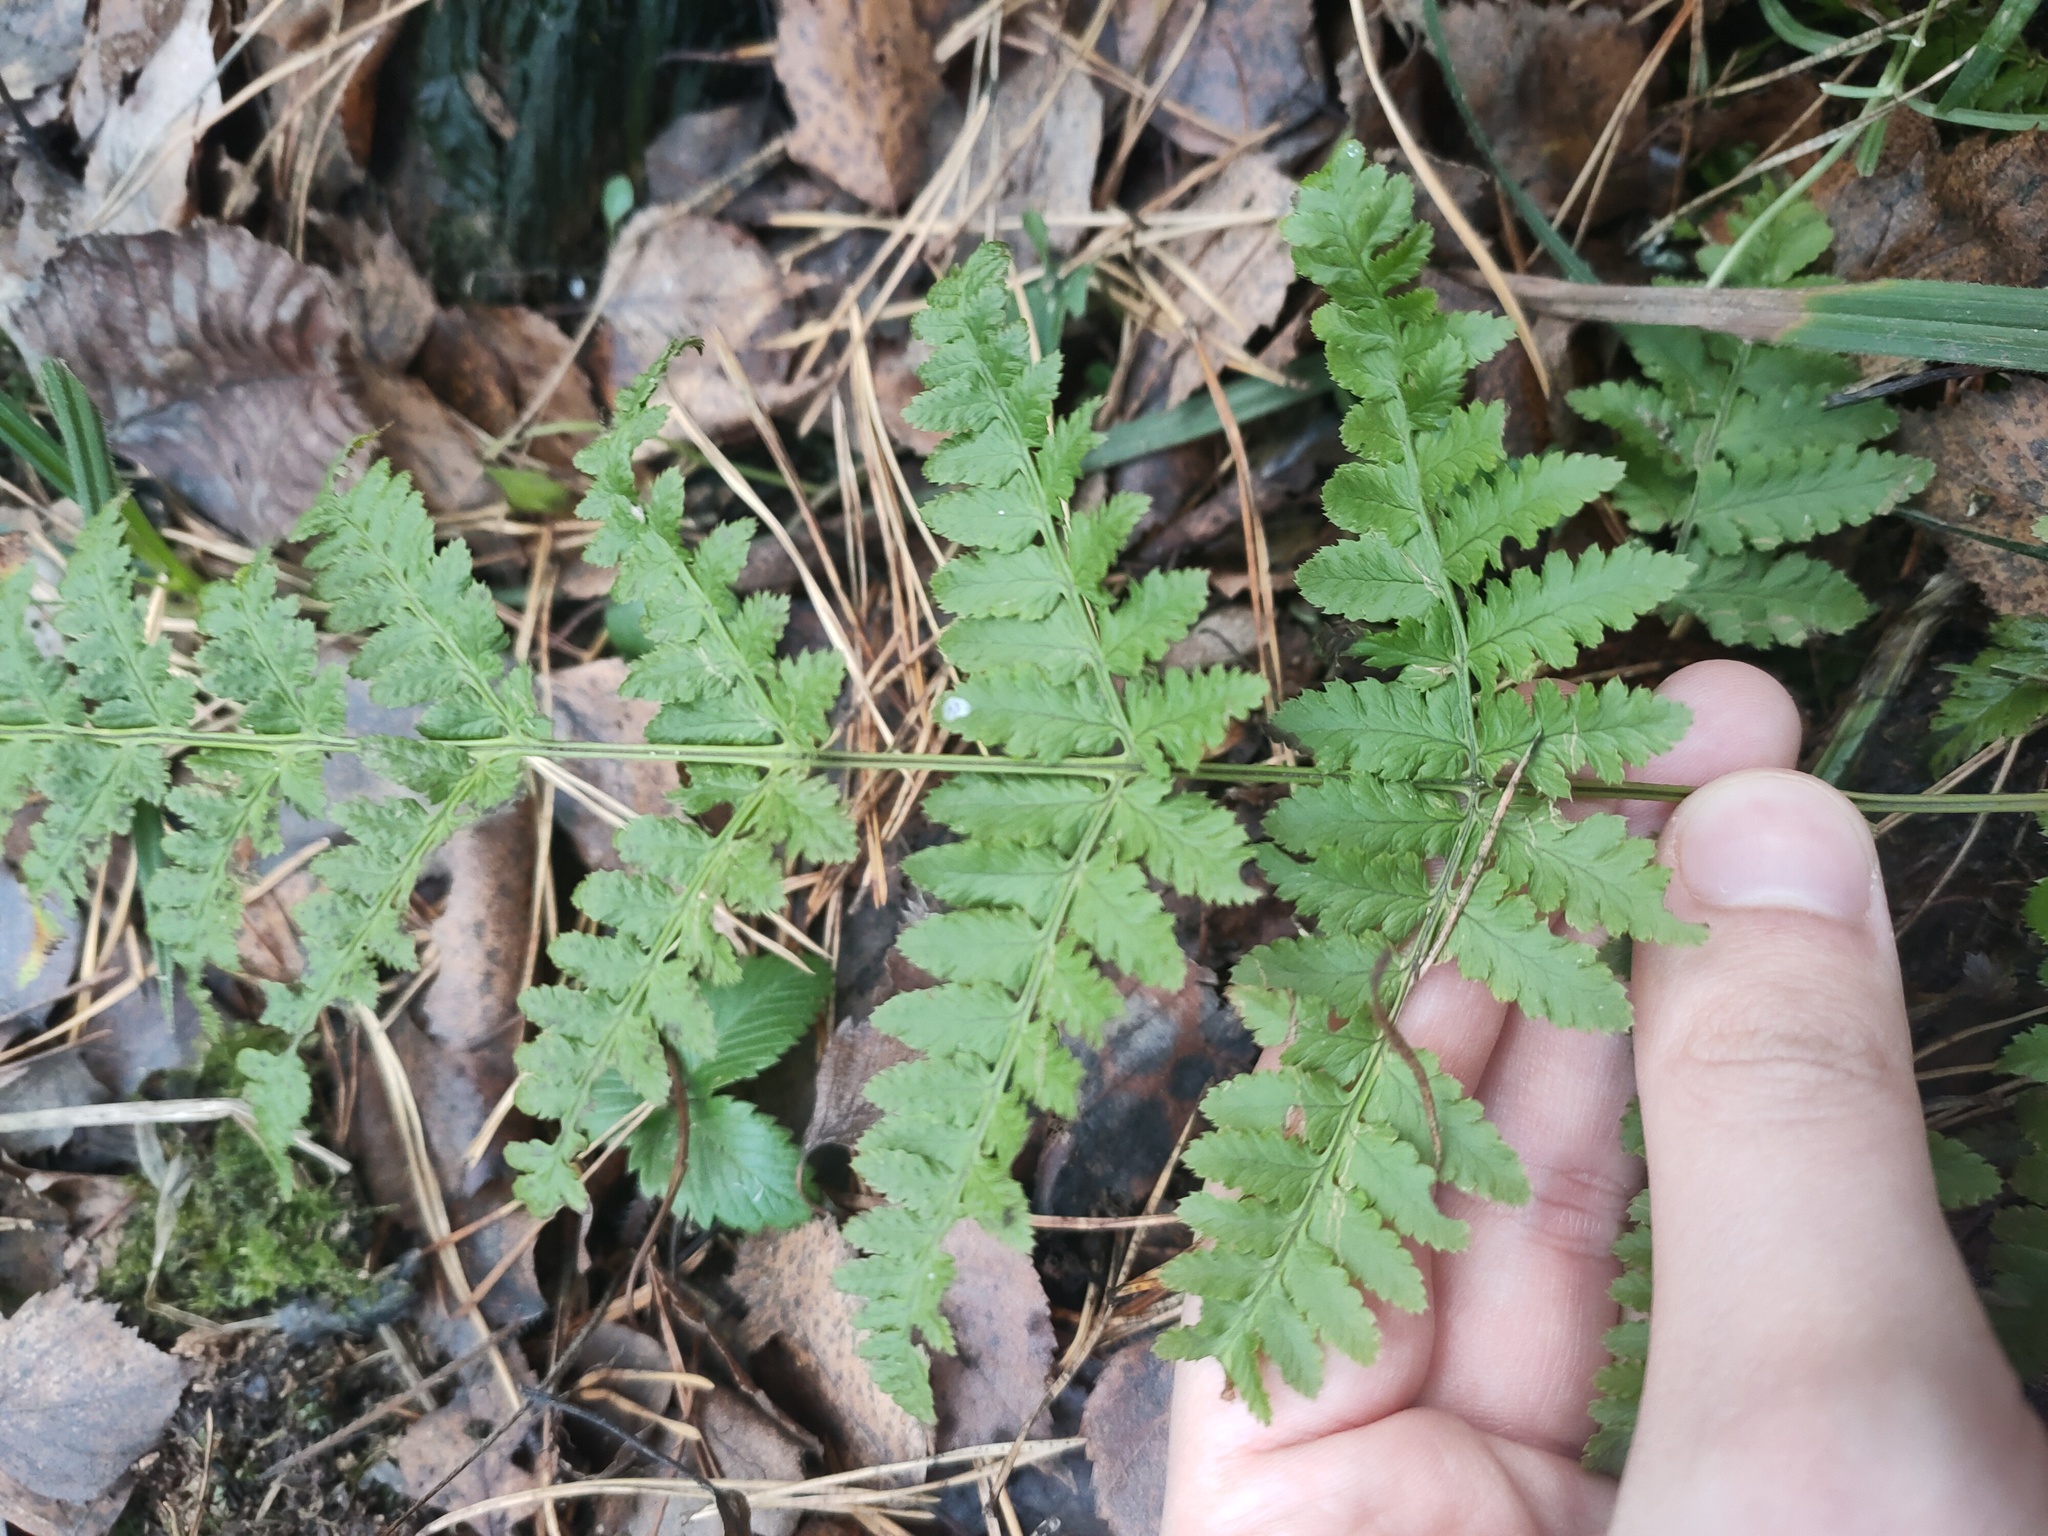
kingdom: Plantae
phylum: Tracheophyta
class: Polypodiopsida
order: Polypodiales
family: Dryopteridaceae
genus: Dryopteris
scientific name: Dryopteris carthusiana
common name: Narrow buckler-fern
